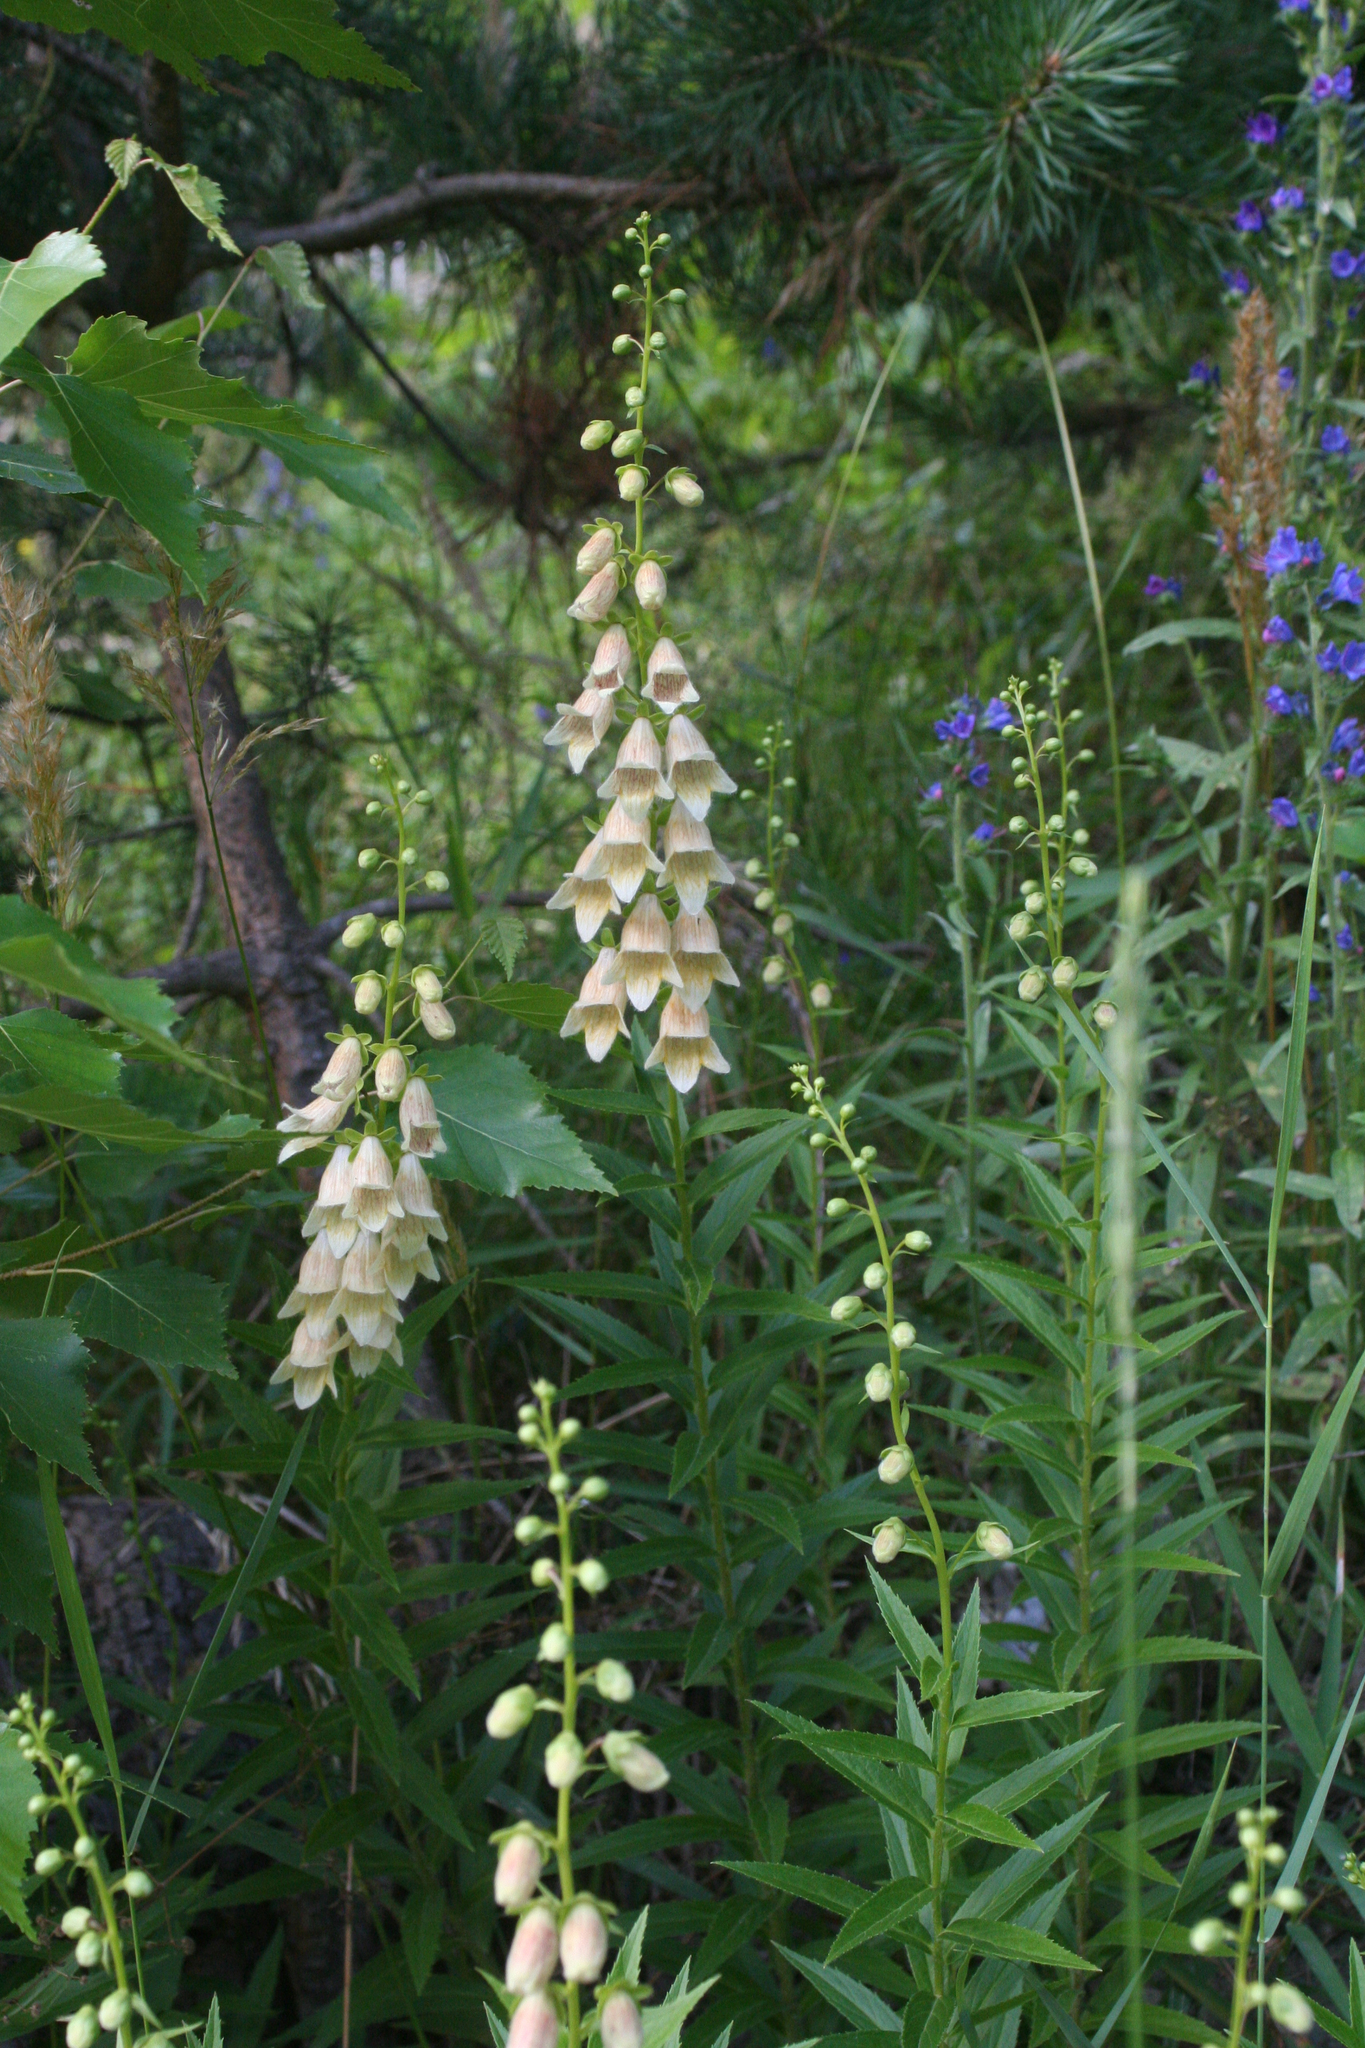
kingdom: Plantae
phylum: Tracheophyta
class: Magnoliopsida
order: Lamiales
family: Plantaginaceae
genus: Digitalis
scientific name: Digitalis ciliata
